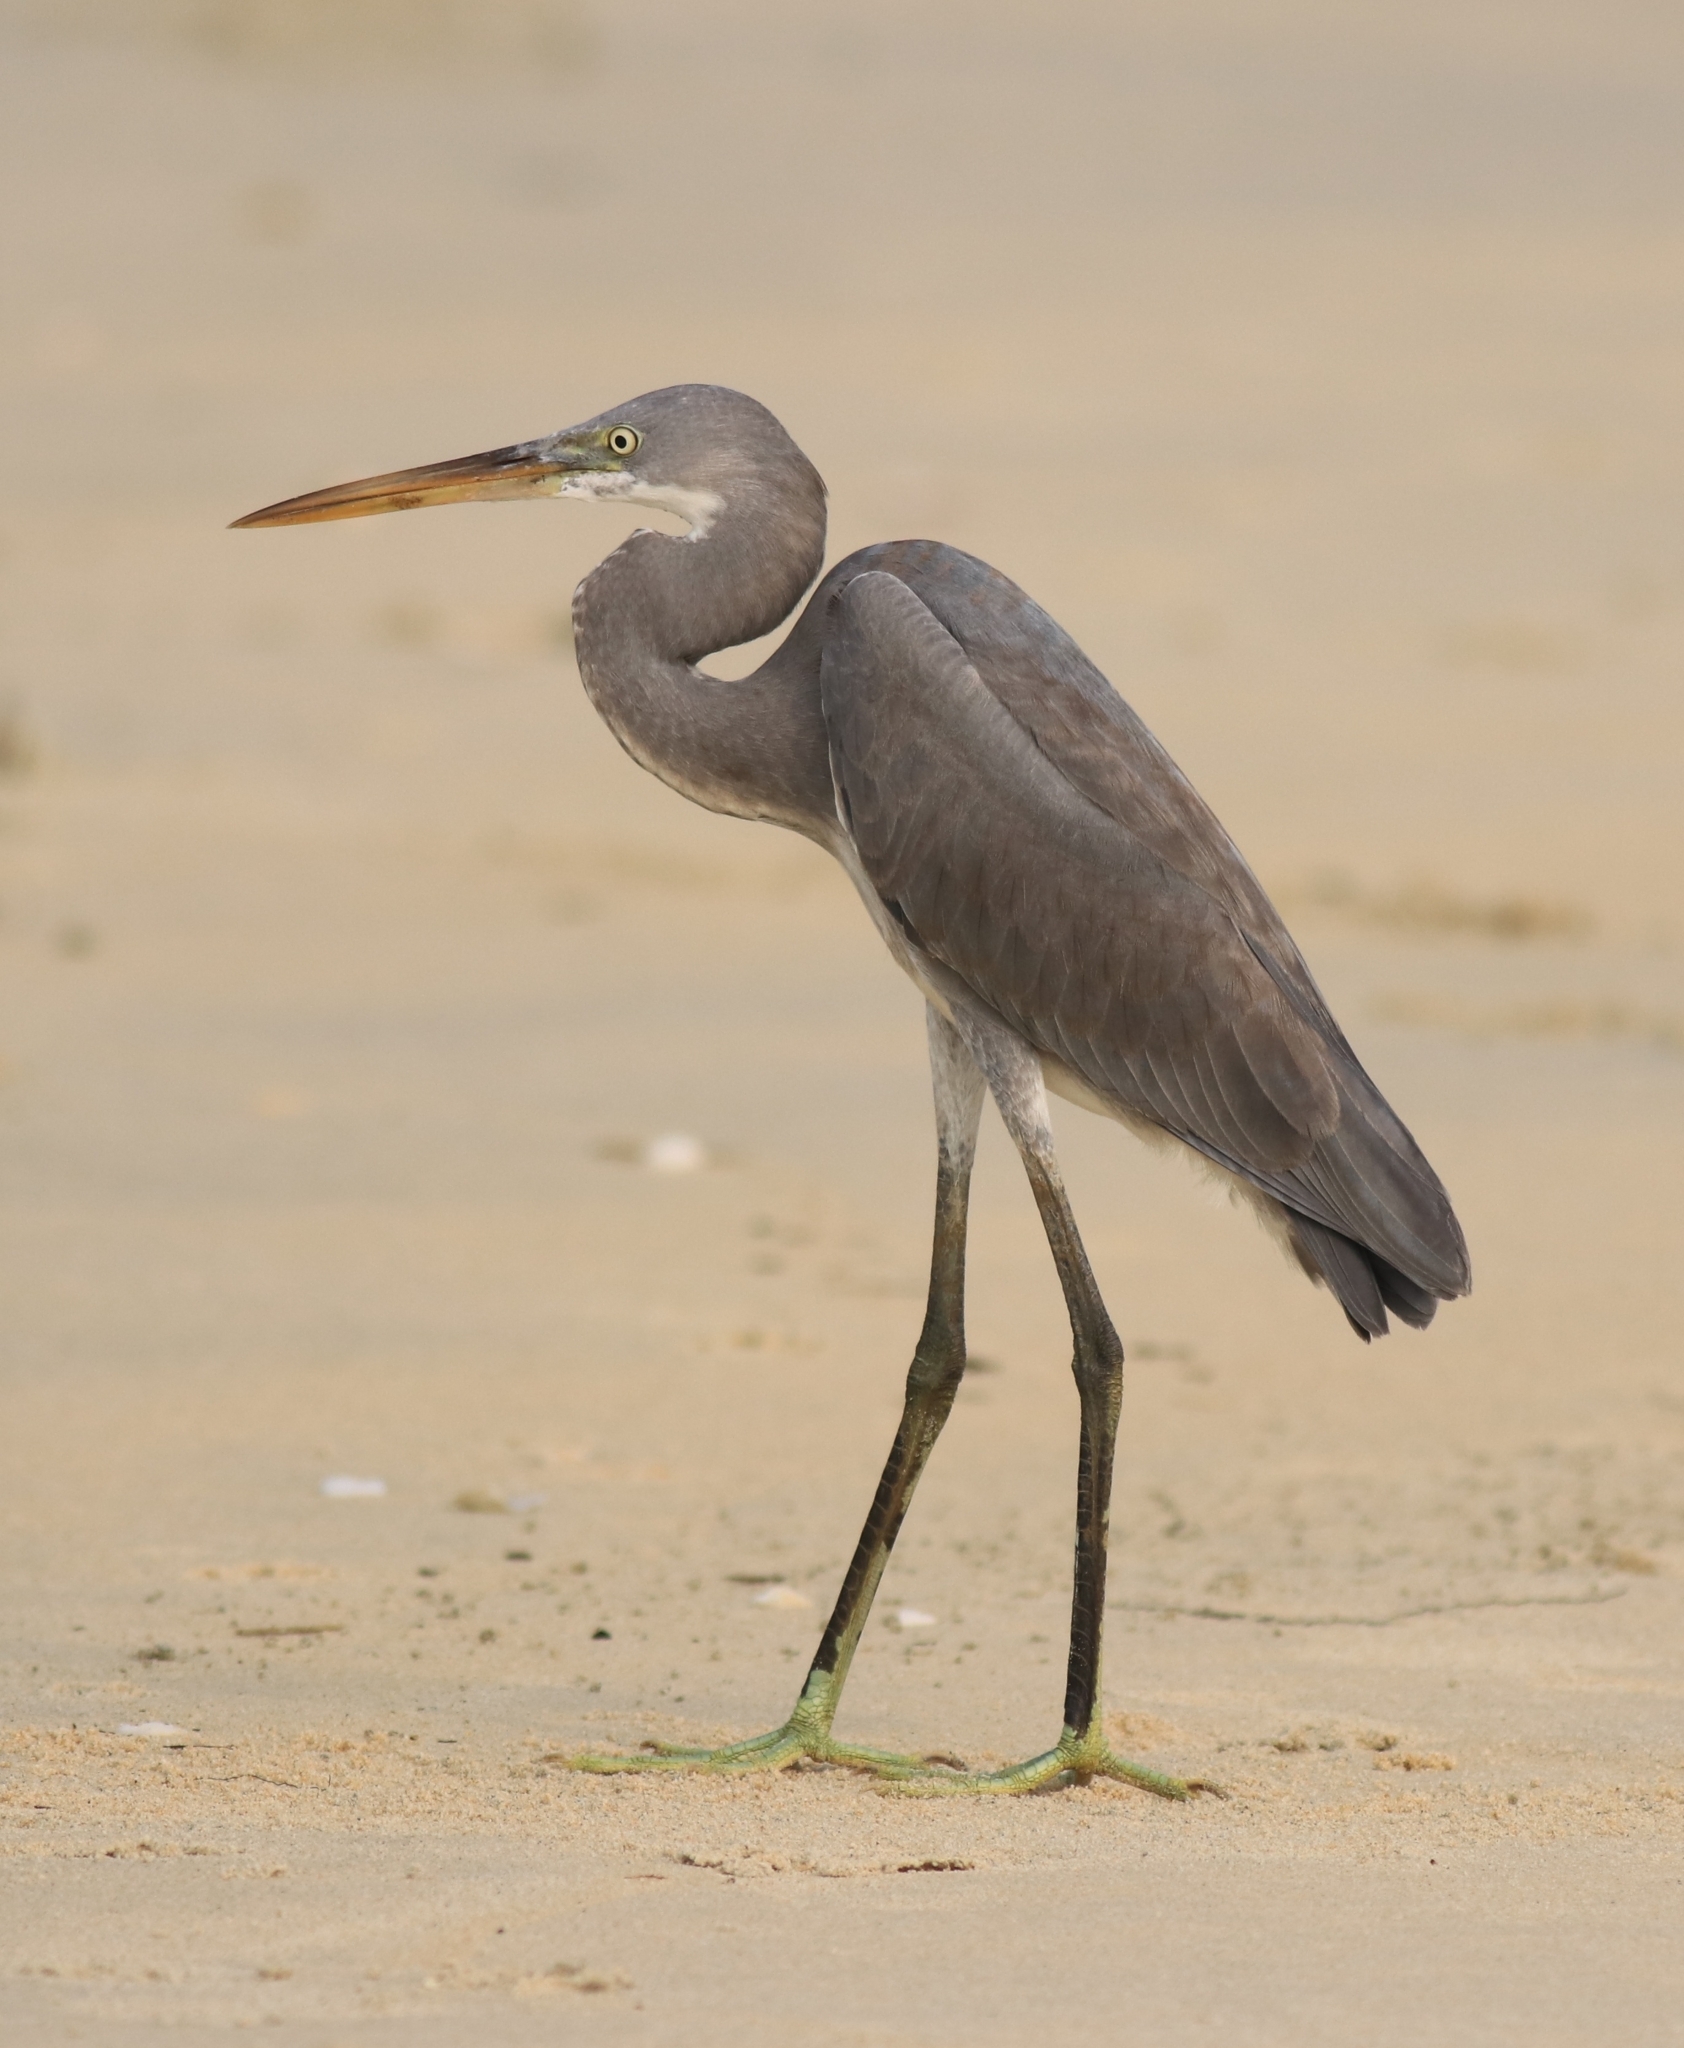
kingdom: Animalia
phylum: Chordata
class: Aves
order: Pelecaniformes
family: Ardeidae
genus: Egretta
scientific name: Egretta gularis
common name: Western reef-heron
